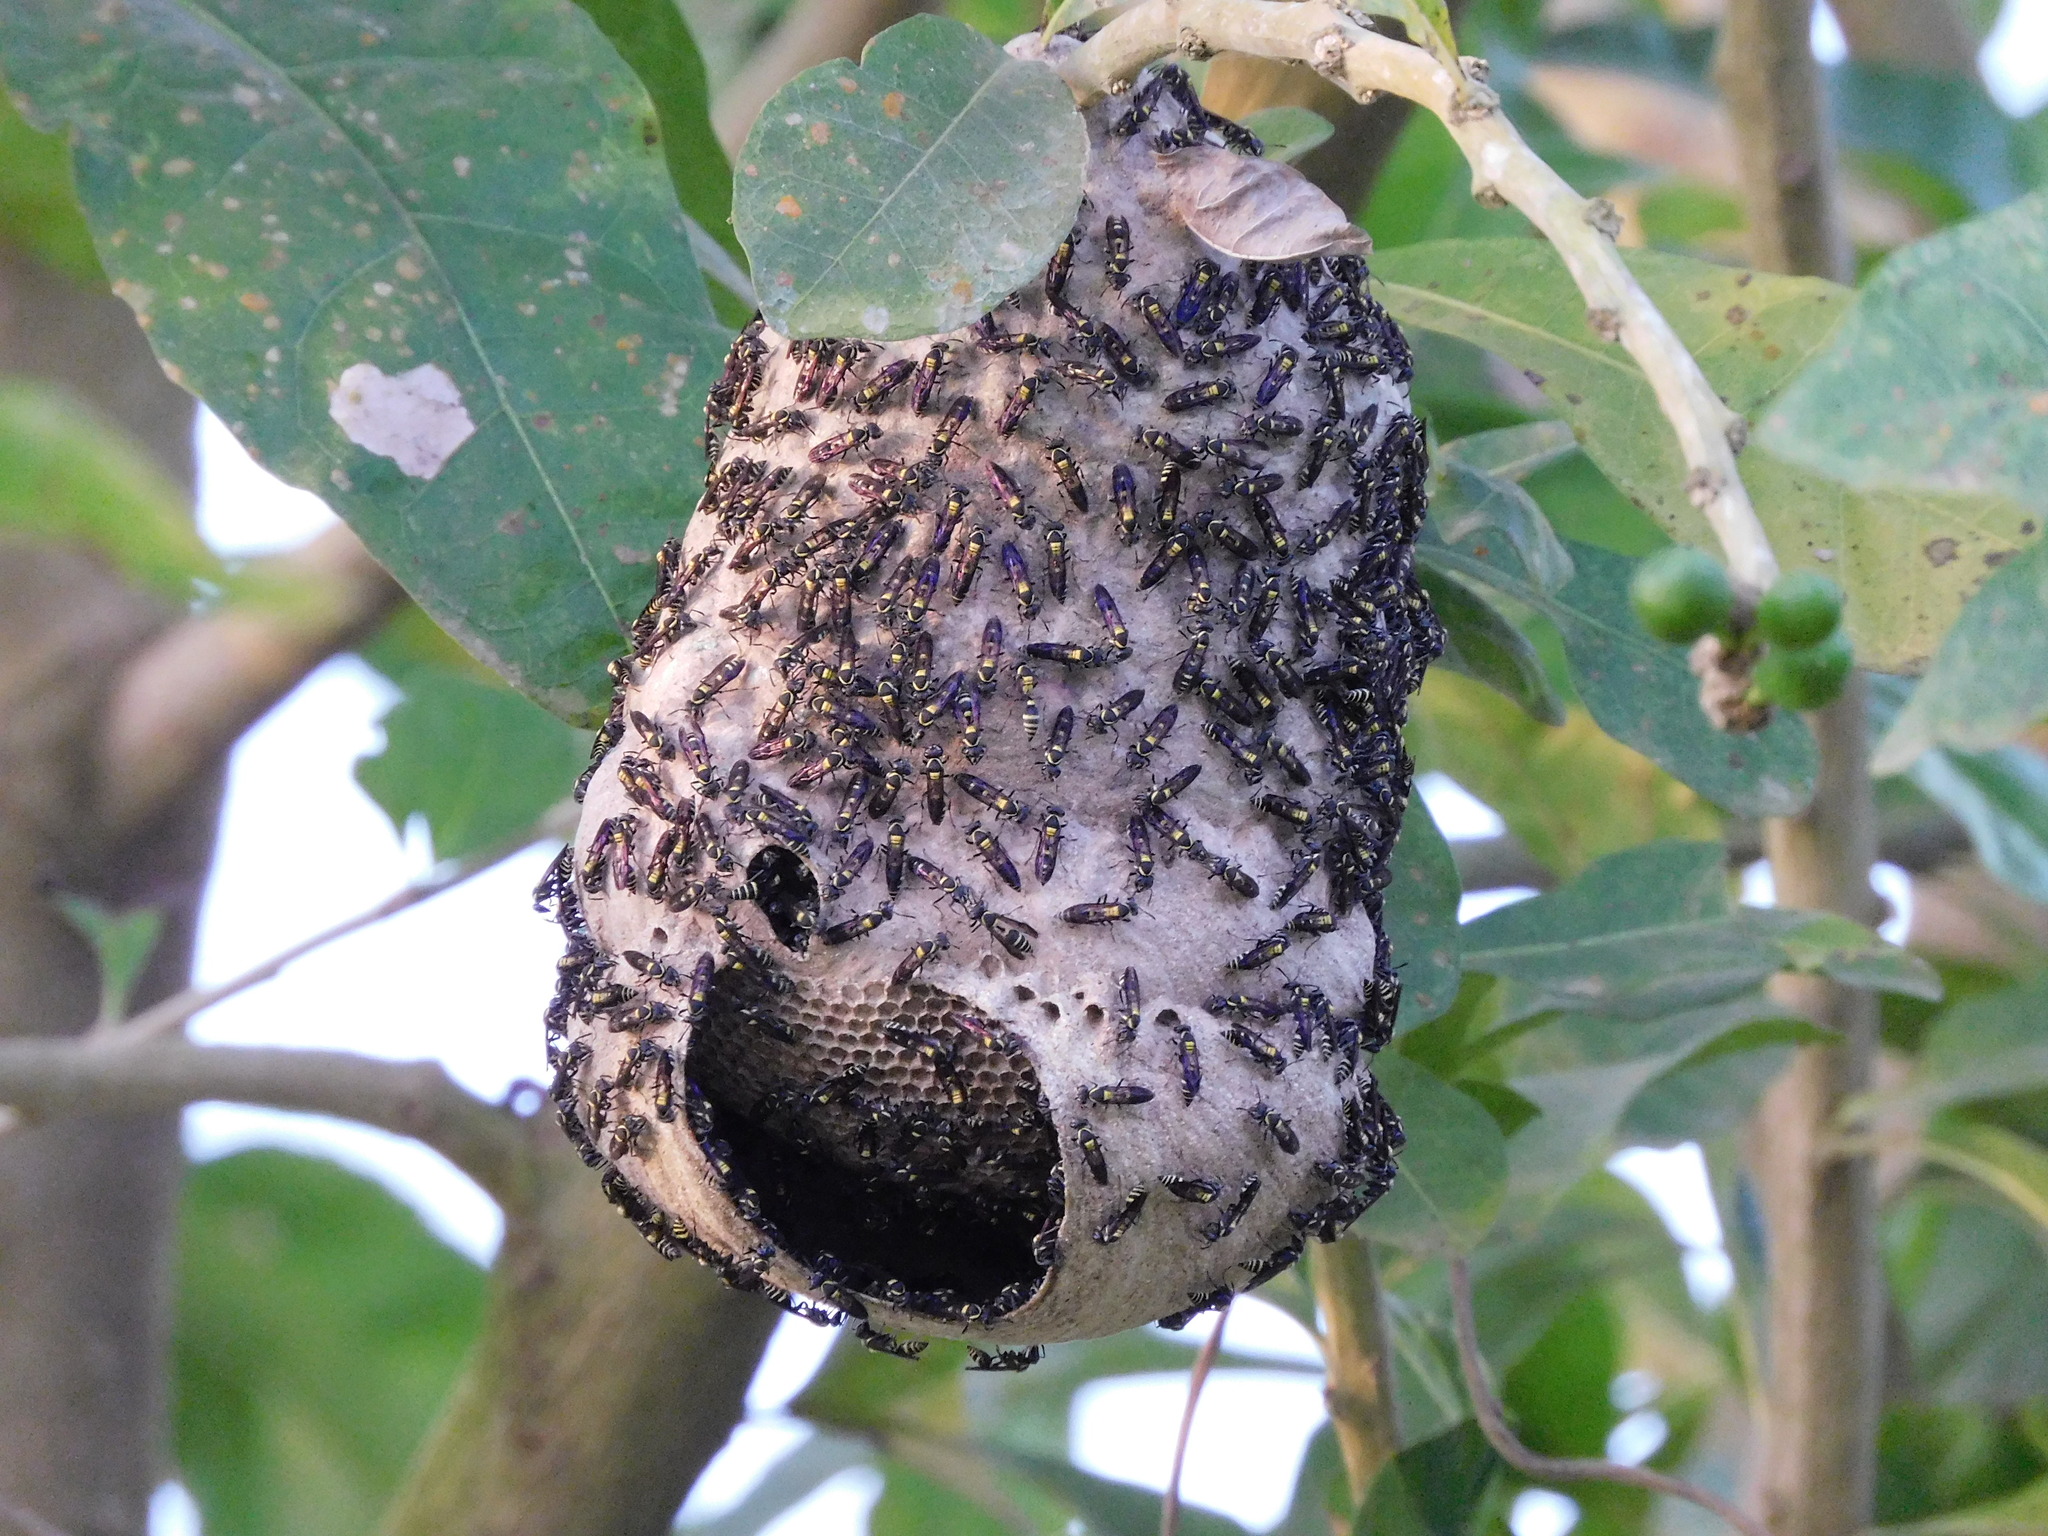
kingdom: Animalia
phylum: Arthropoda
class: Insecta
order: Hymenoptera
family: Eumenidae
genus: Polybia
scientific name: Polybia occidentalis
